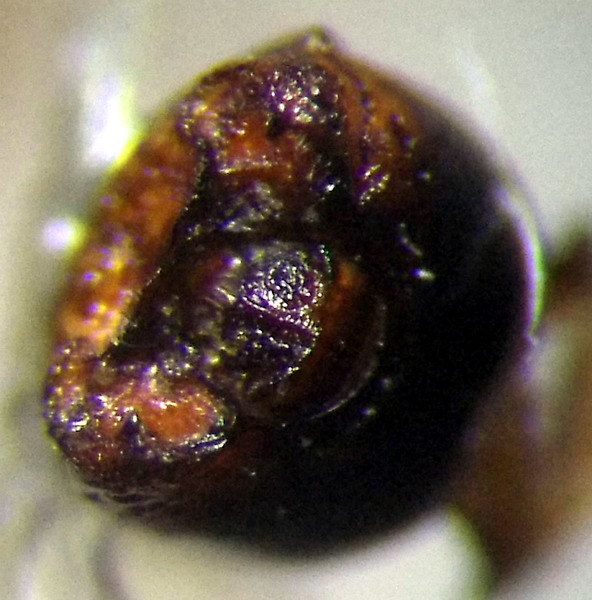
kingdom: Animalia
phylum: Arthropoda
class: Insecta
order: Hemiptera
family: Pentatomidae
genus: Sciocoris
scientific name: Sciocoris homalonotus
